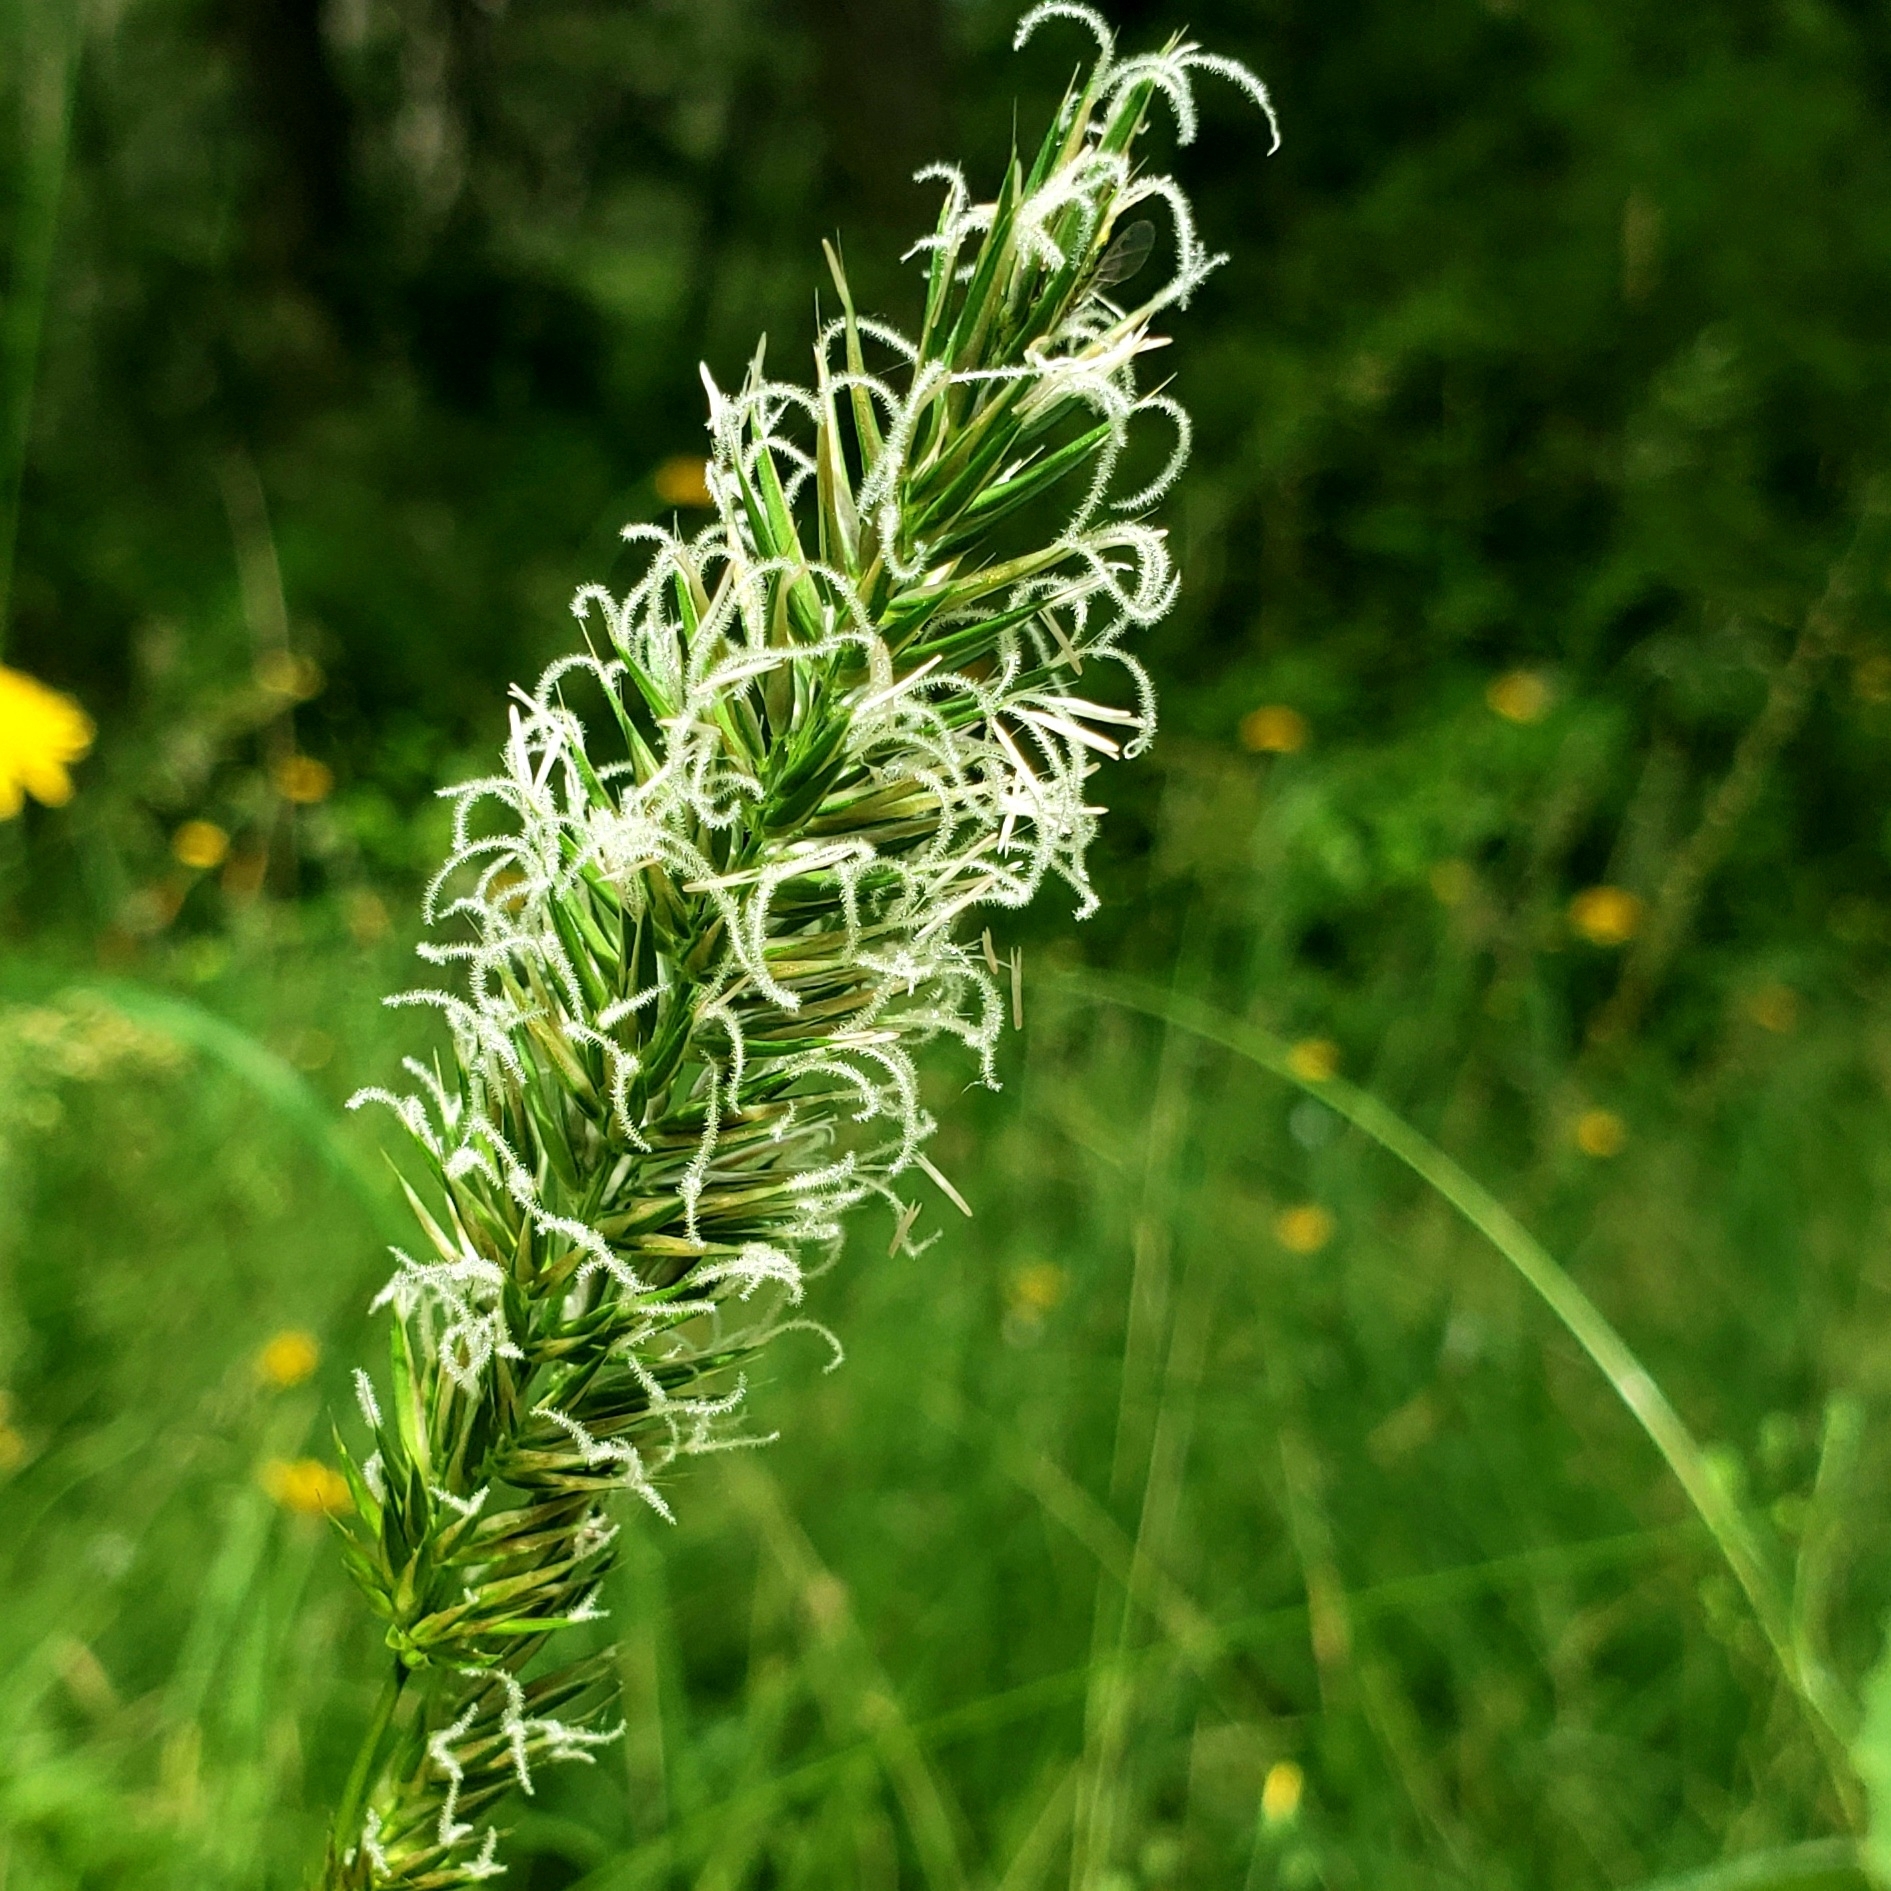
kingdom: Plantae
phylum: Tracheophyta
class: Liliopsida
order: Poales
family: Poaceae
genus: Anthoxanthum
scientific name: Anthoxanthum odoratum
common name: Sweet vernalgrass
